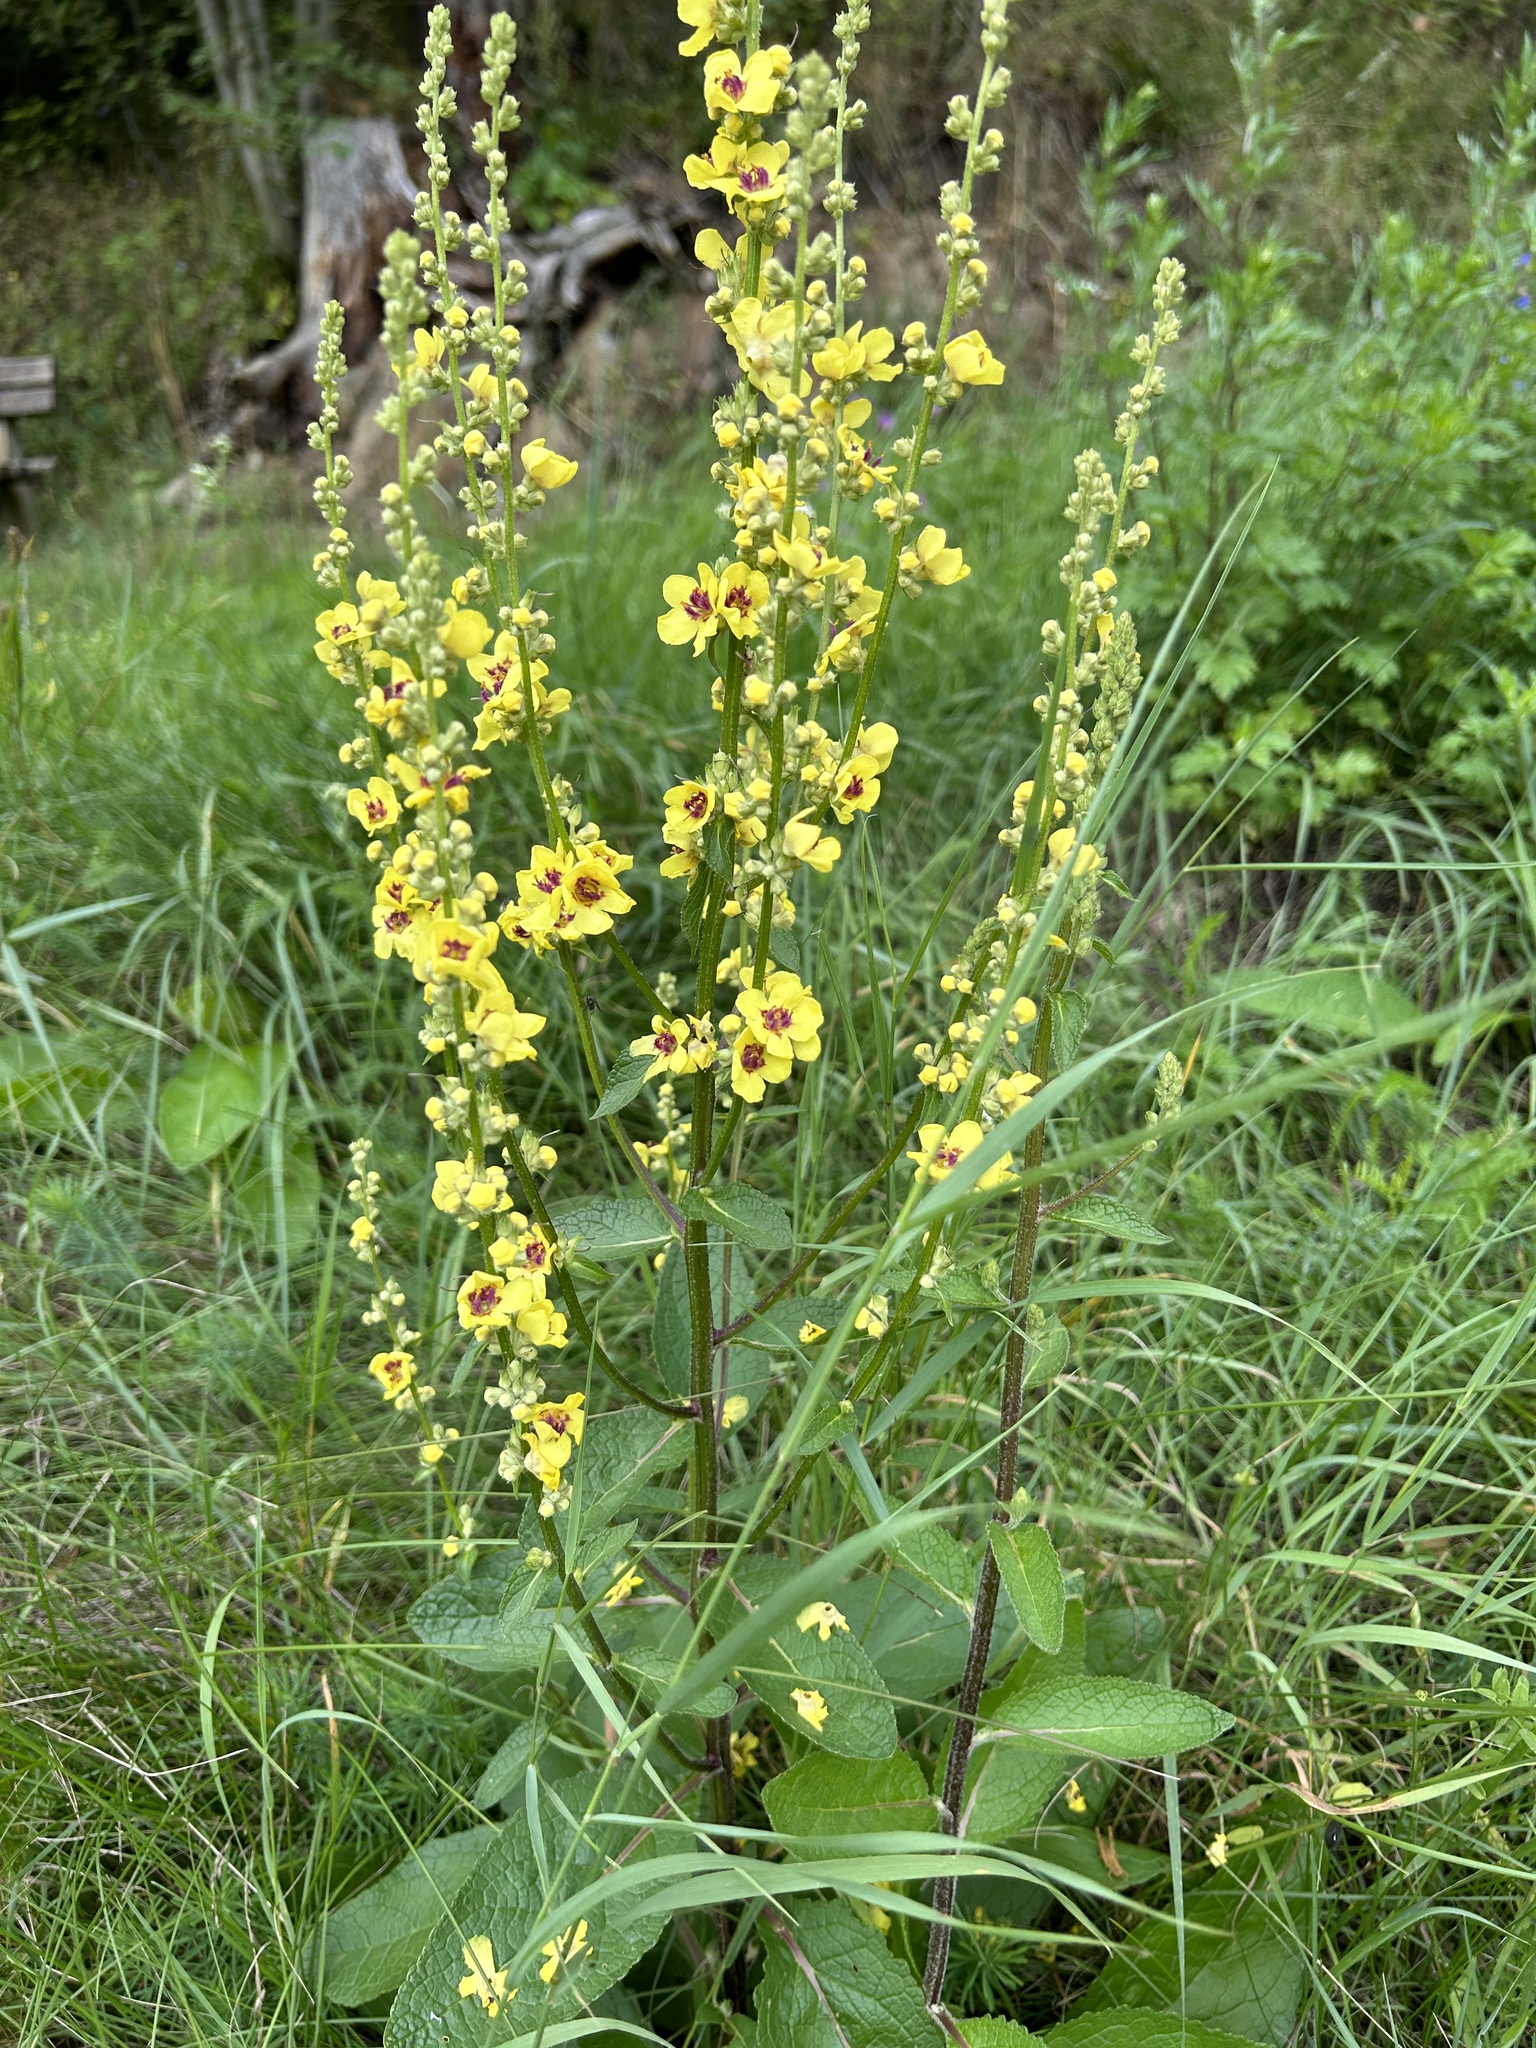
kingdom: Plantae
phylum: Tracheophyta
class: Magnoliopsida
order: Lamiales
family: Scrophulariaceae
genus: Verbascum
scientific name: Verbascum chaixii
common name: Nettle-leaved mullein
